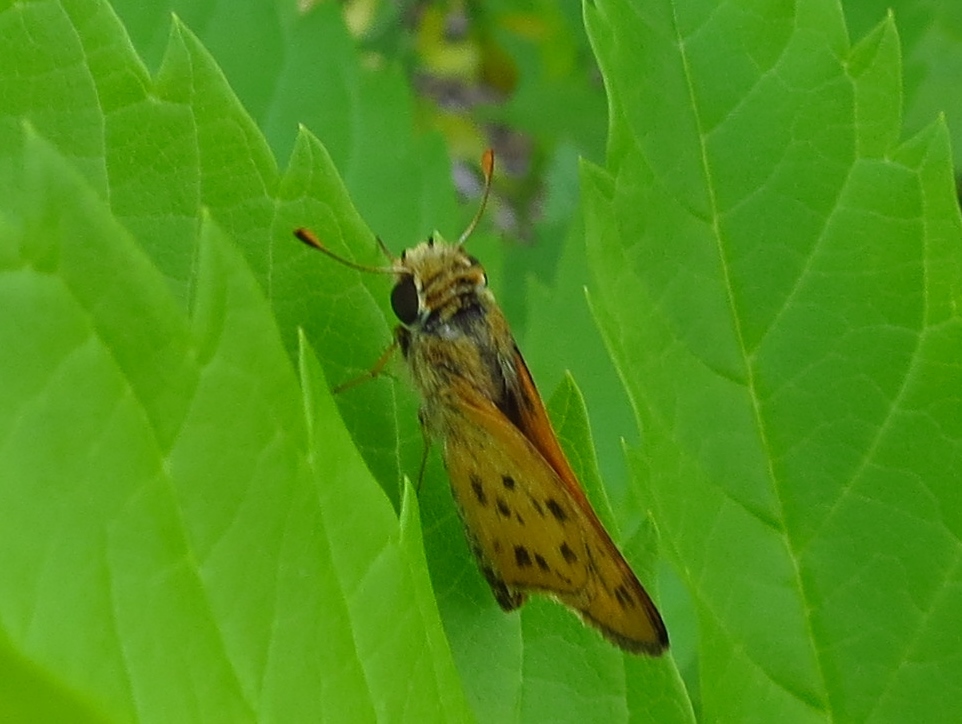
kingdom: Animalia
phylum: Arthropoda
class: Insecta
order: Lepidoptera
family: Hesperiidae
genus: Hylephila
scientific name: Hylephila phyleus
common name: Fiery skipper
